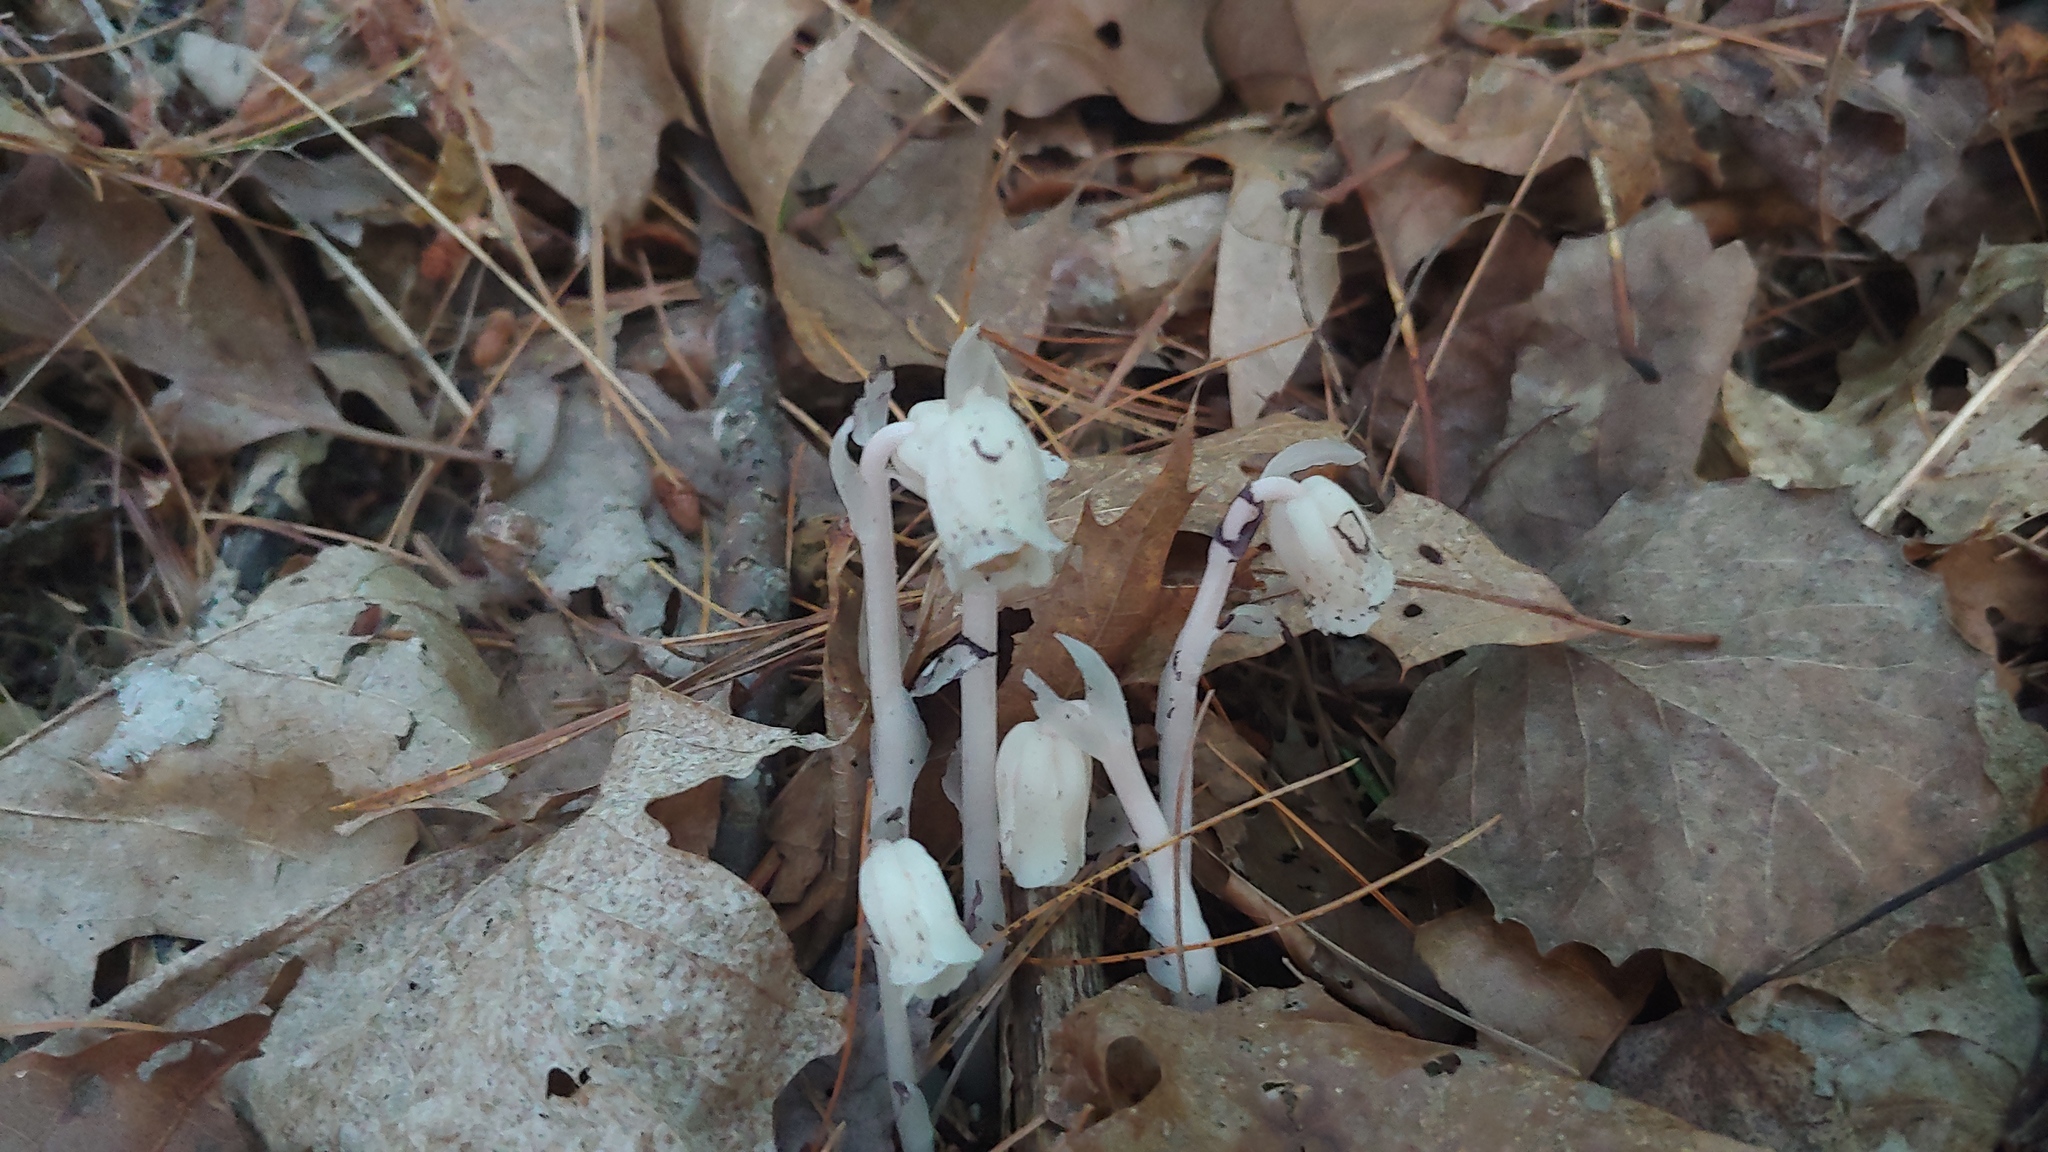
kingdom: Plantae
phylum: Tracheophyta
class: Magnoliopsida
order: Ericales
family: Ericaceae
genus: Monotropa
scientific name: Monotropa uniflora
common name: Convulsion root
